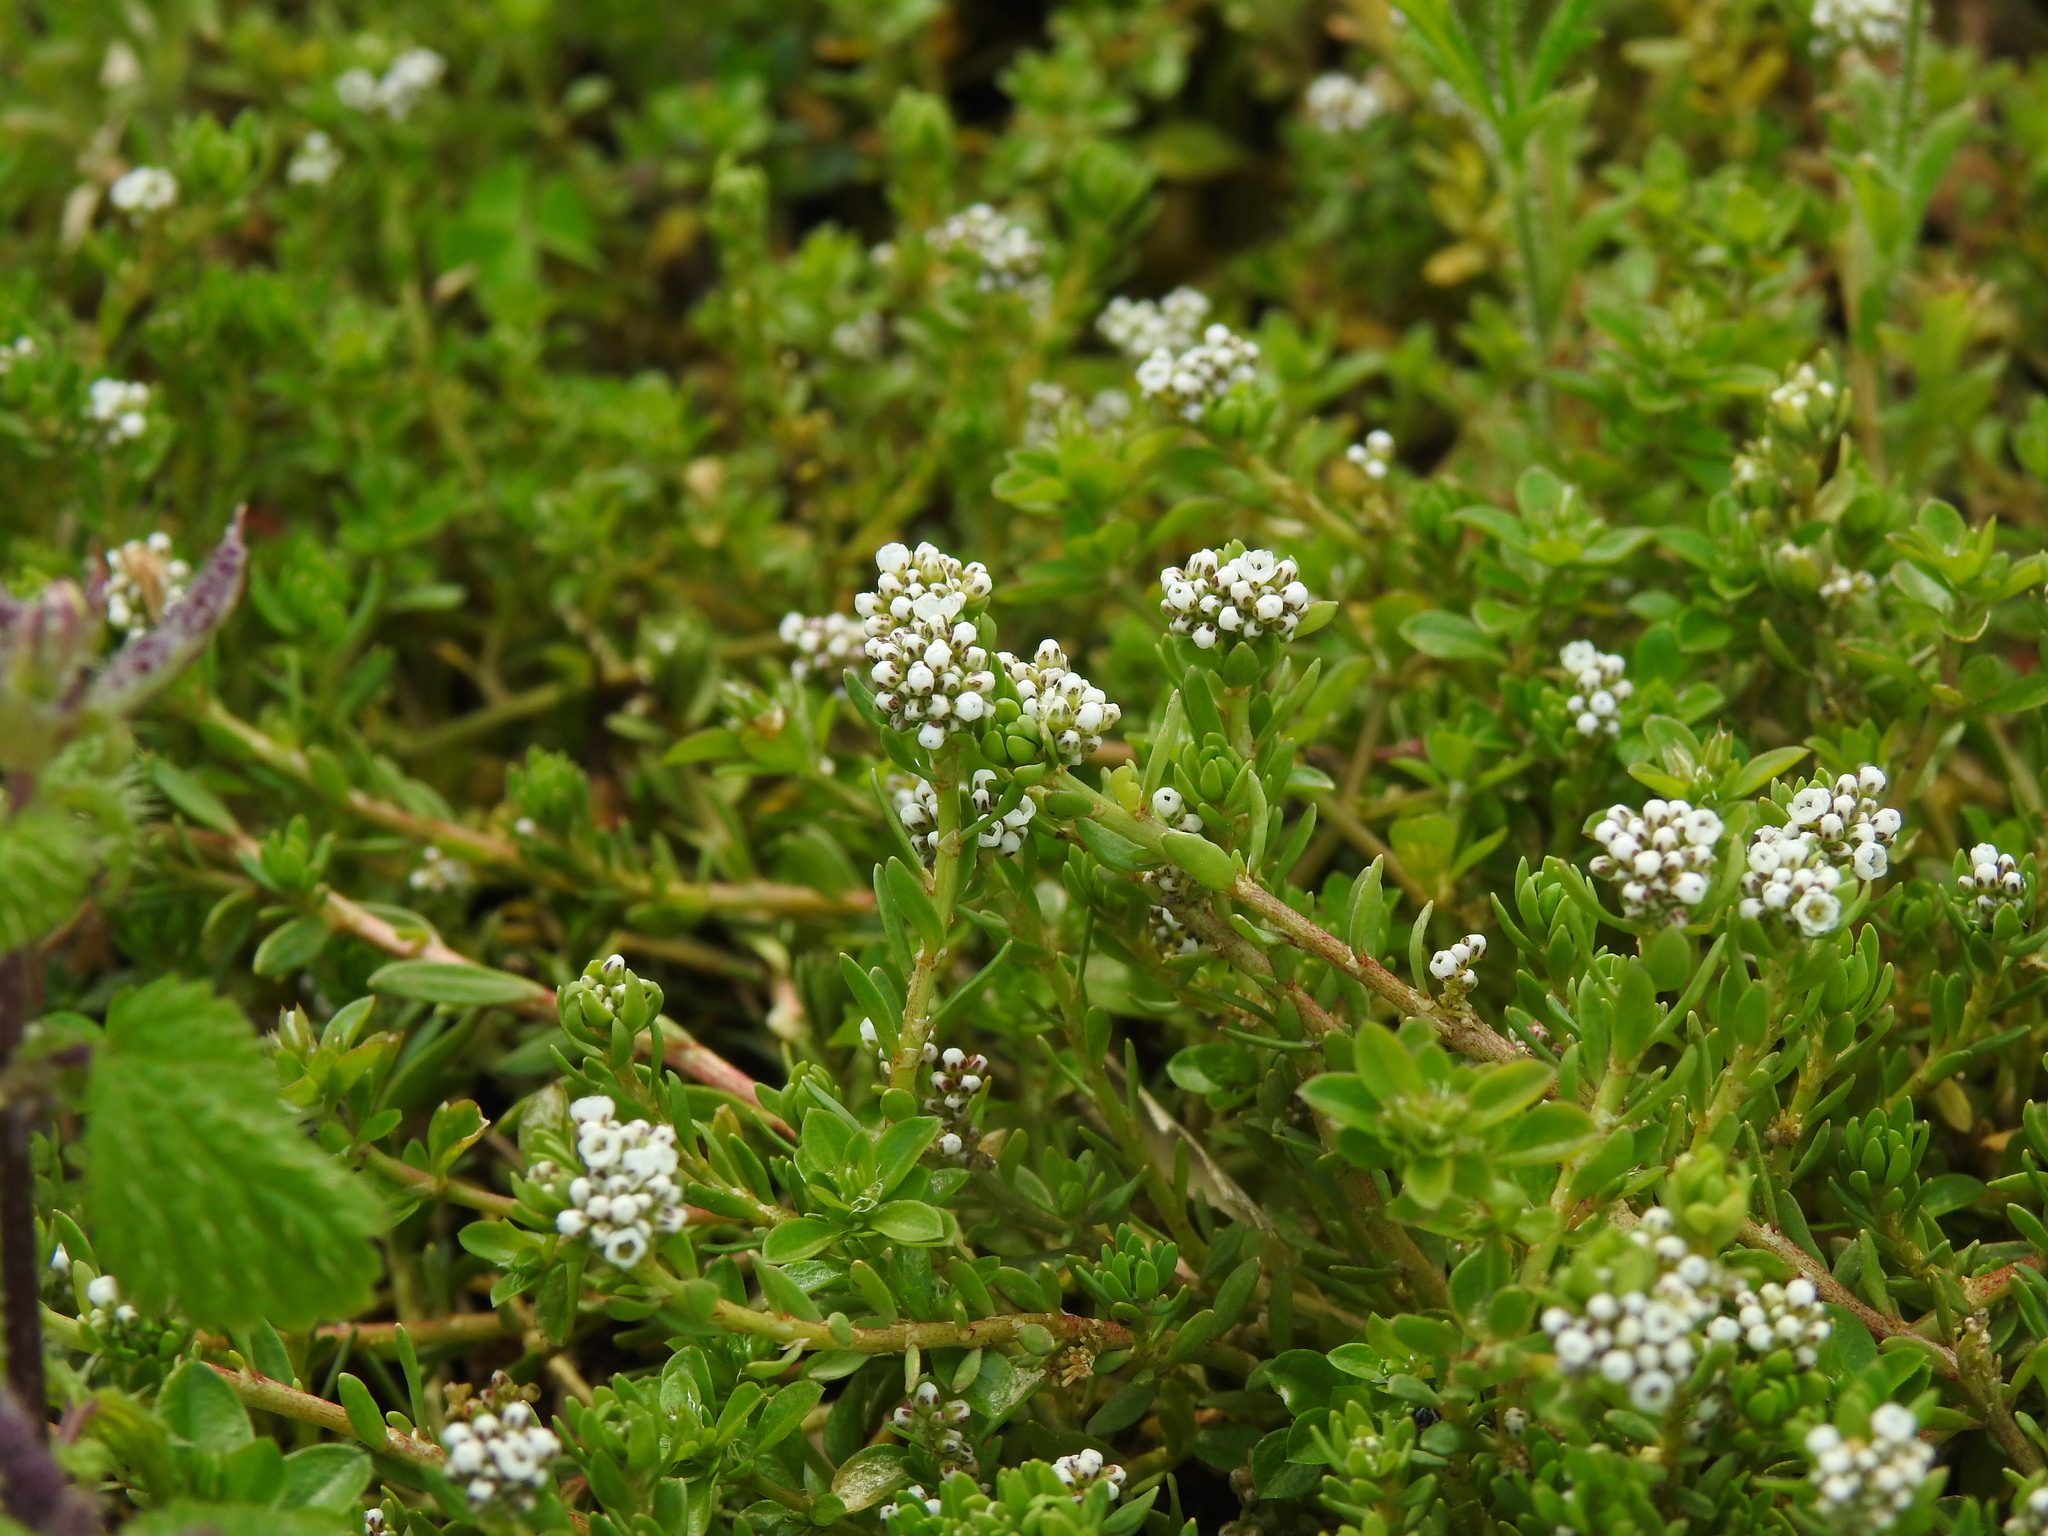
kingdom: Plantae
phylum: Tracheophyta
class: Magnoliopsida
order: Caryophyllales
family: Caryophyllaceae
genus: Corrigiola
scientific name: Corrigiola litoralis
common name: Strapwort
